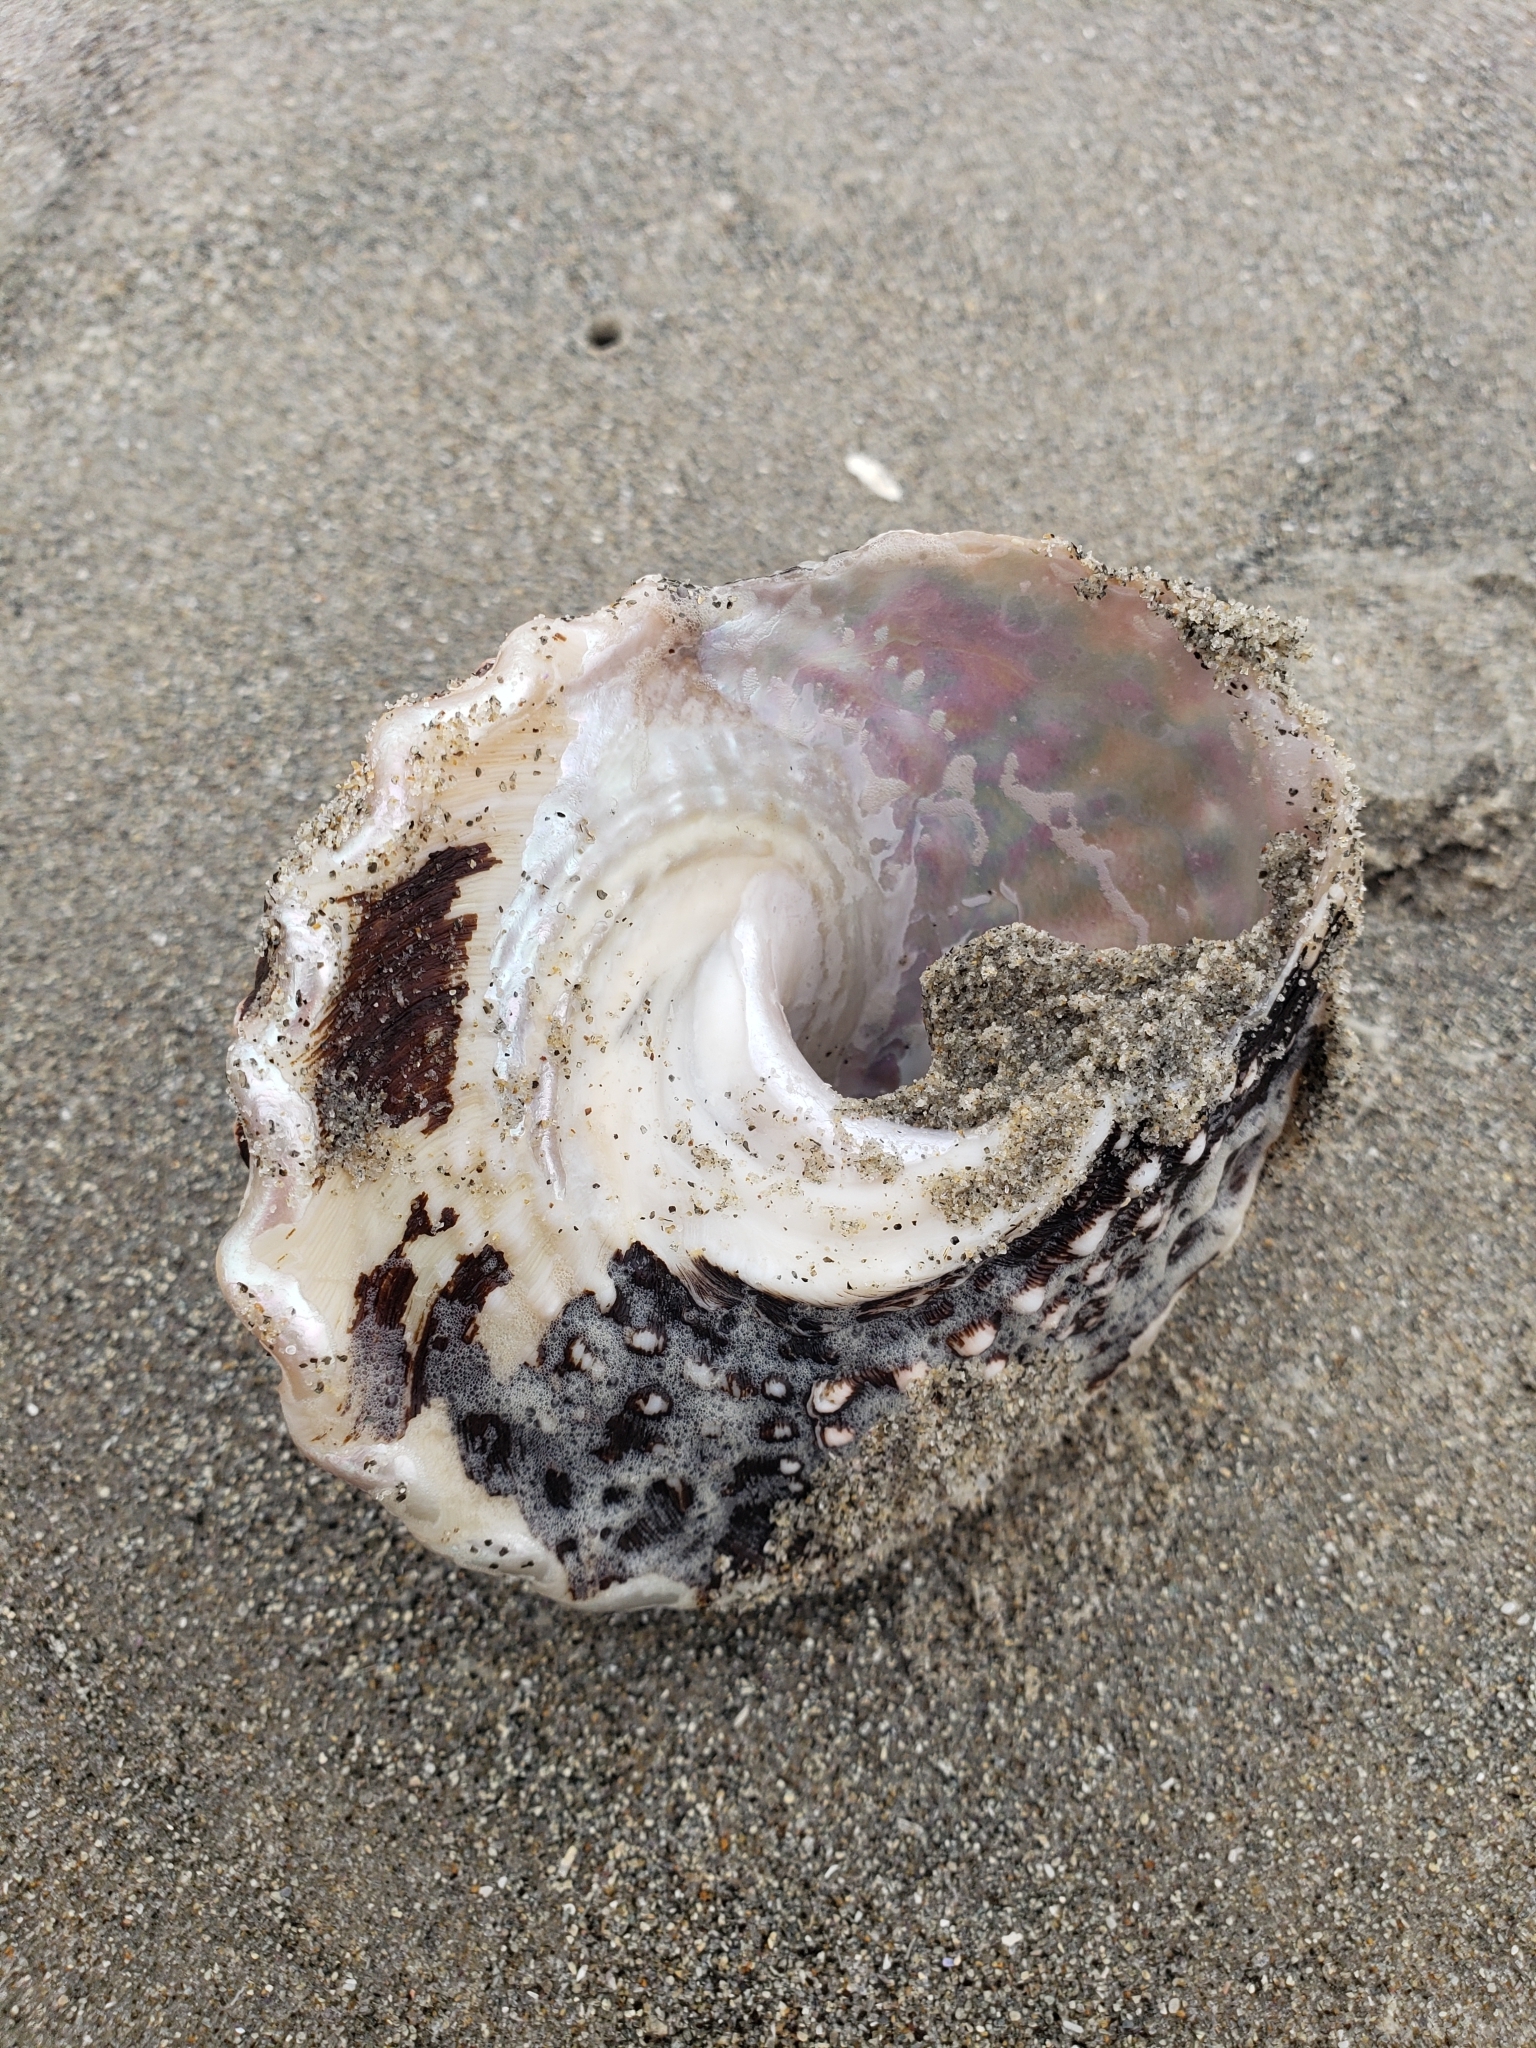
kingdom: Animalia
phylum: Mollusca
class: Gastropoda
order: Trochida
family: Turbinidae
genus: Megastraea
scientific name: Megastraea undosa
